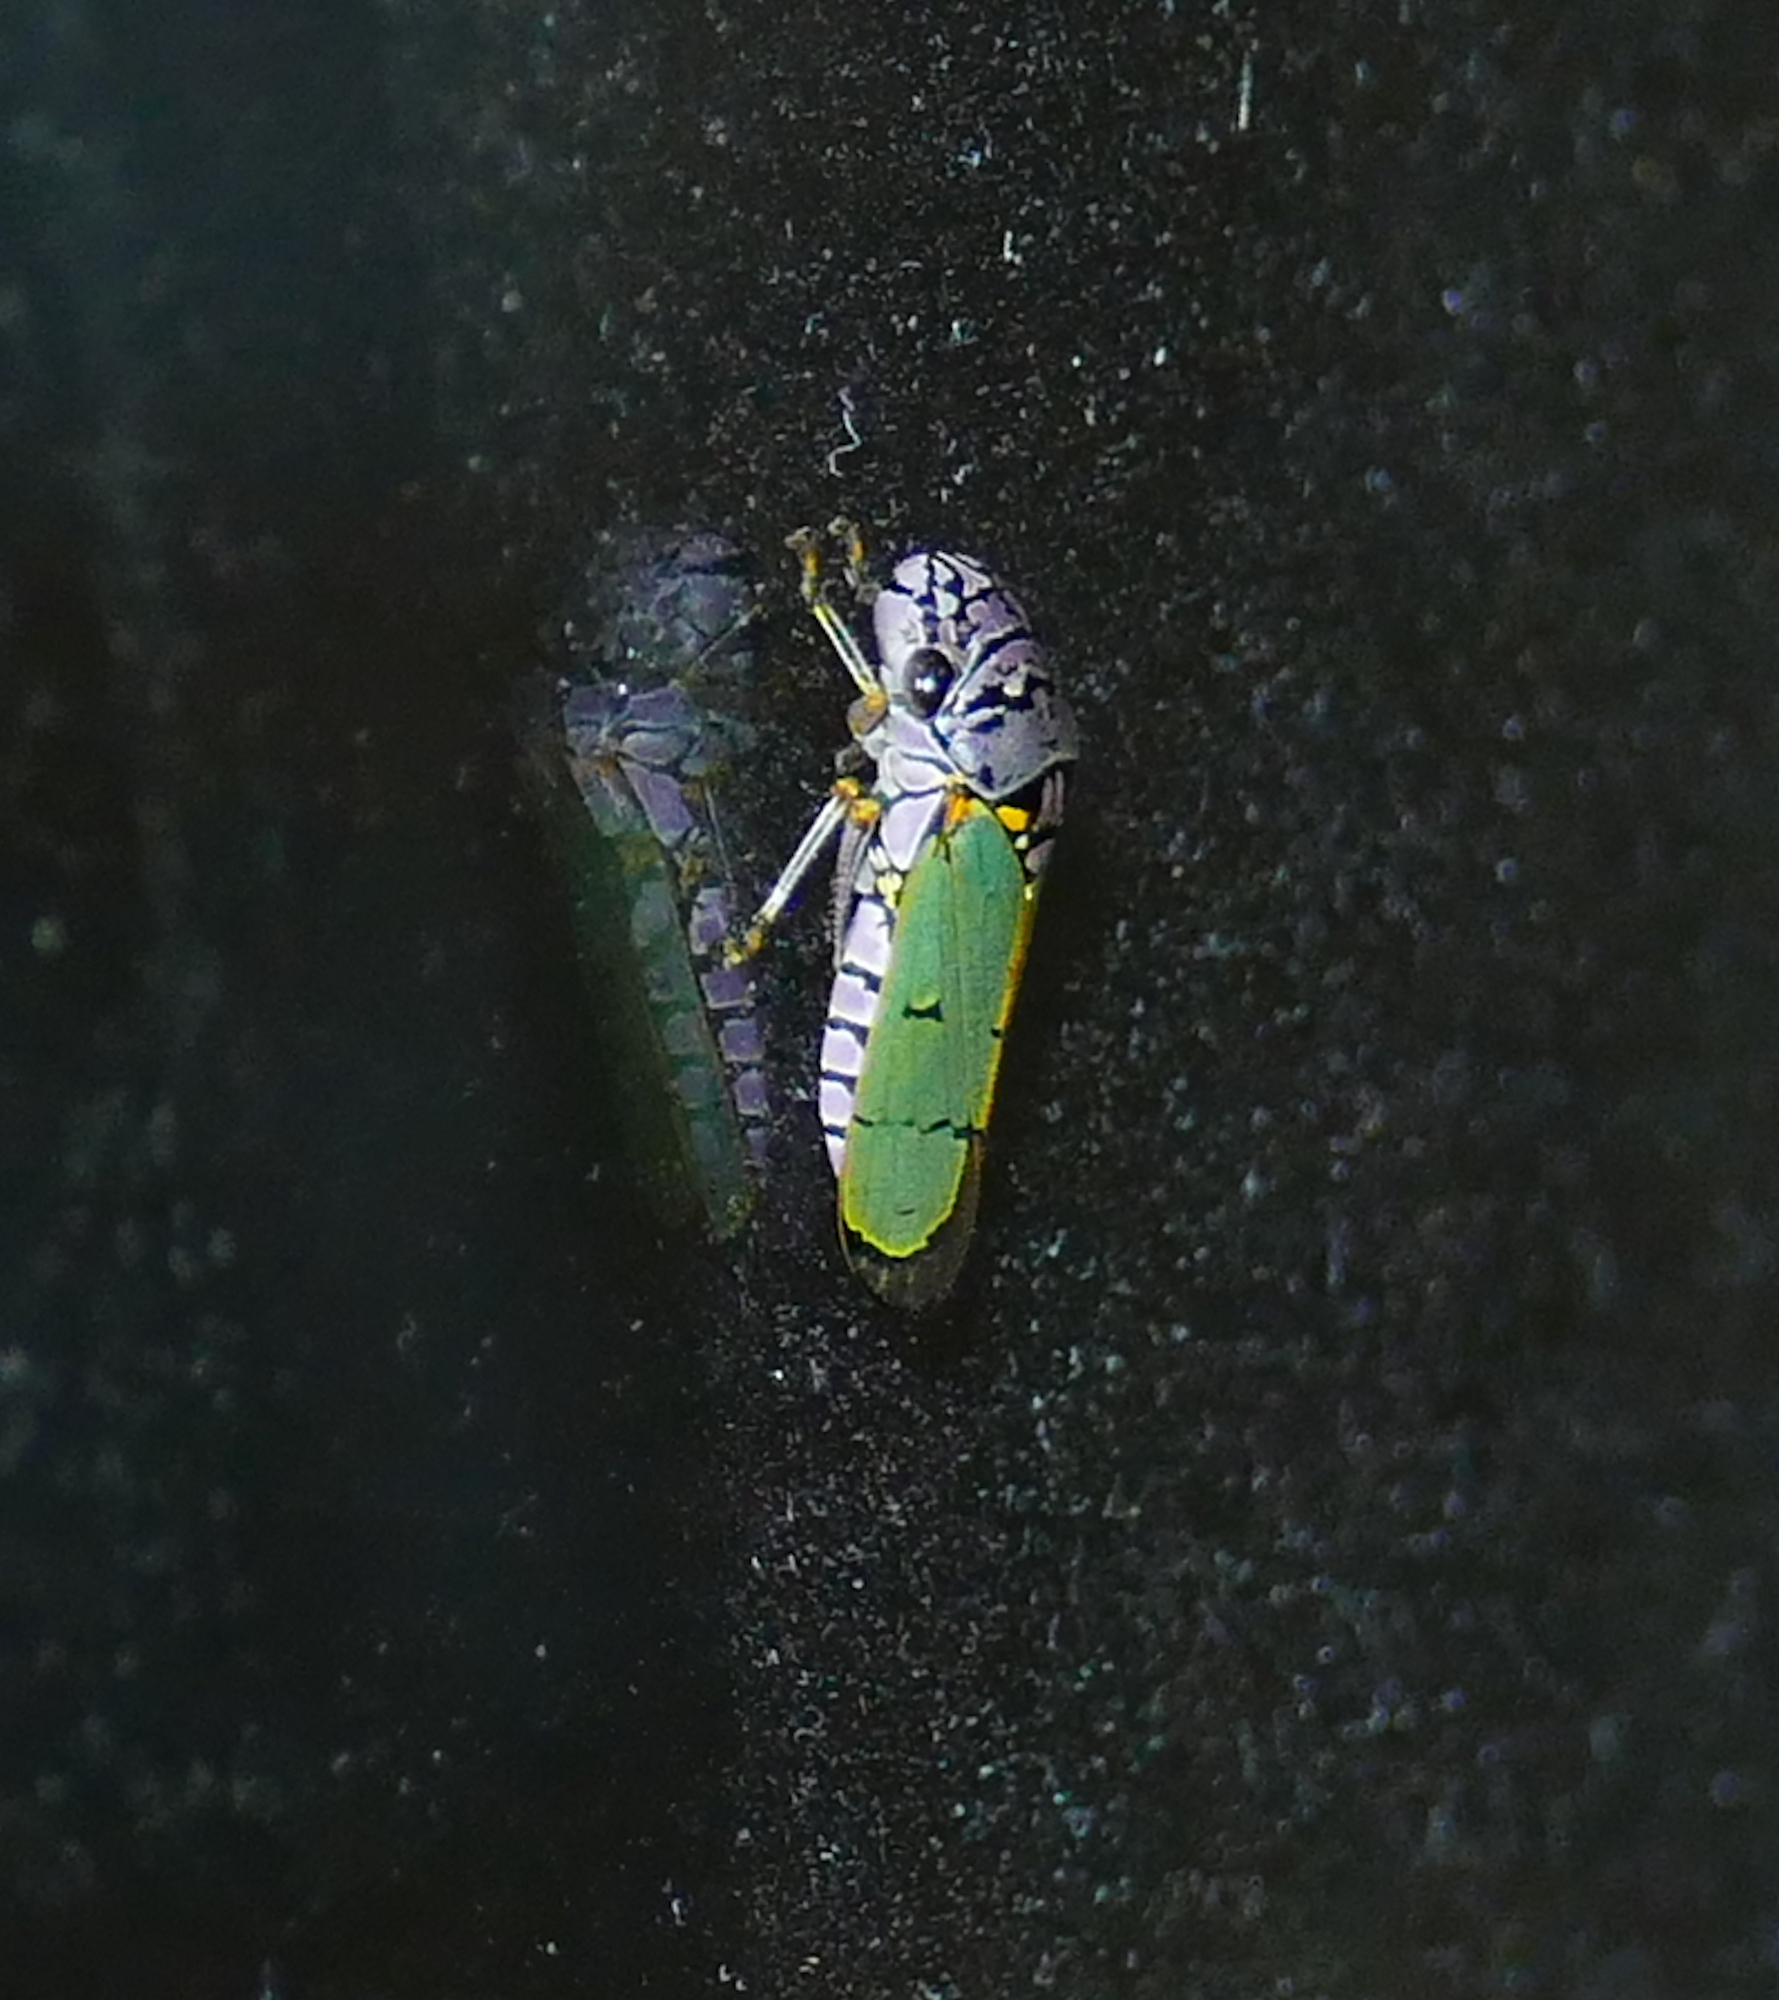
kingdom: Animalia
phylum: Arthropoda
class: Insecta
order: Hemiptera
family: Cicadellidae
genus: Oncometopia
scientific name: Oncometopia alpha
